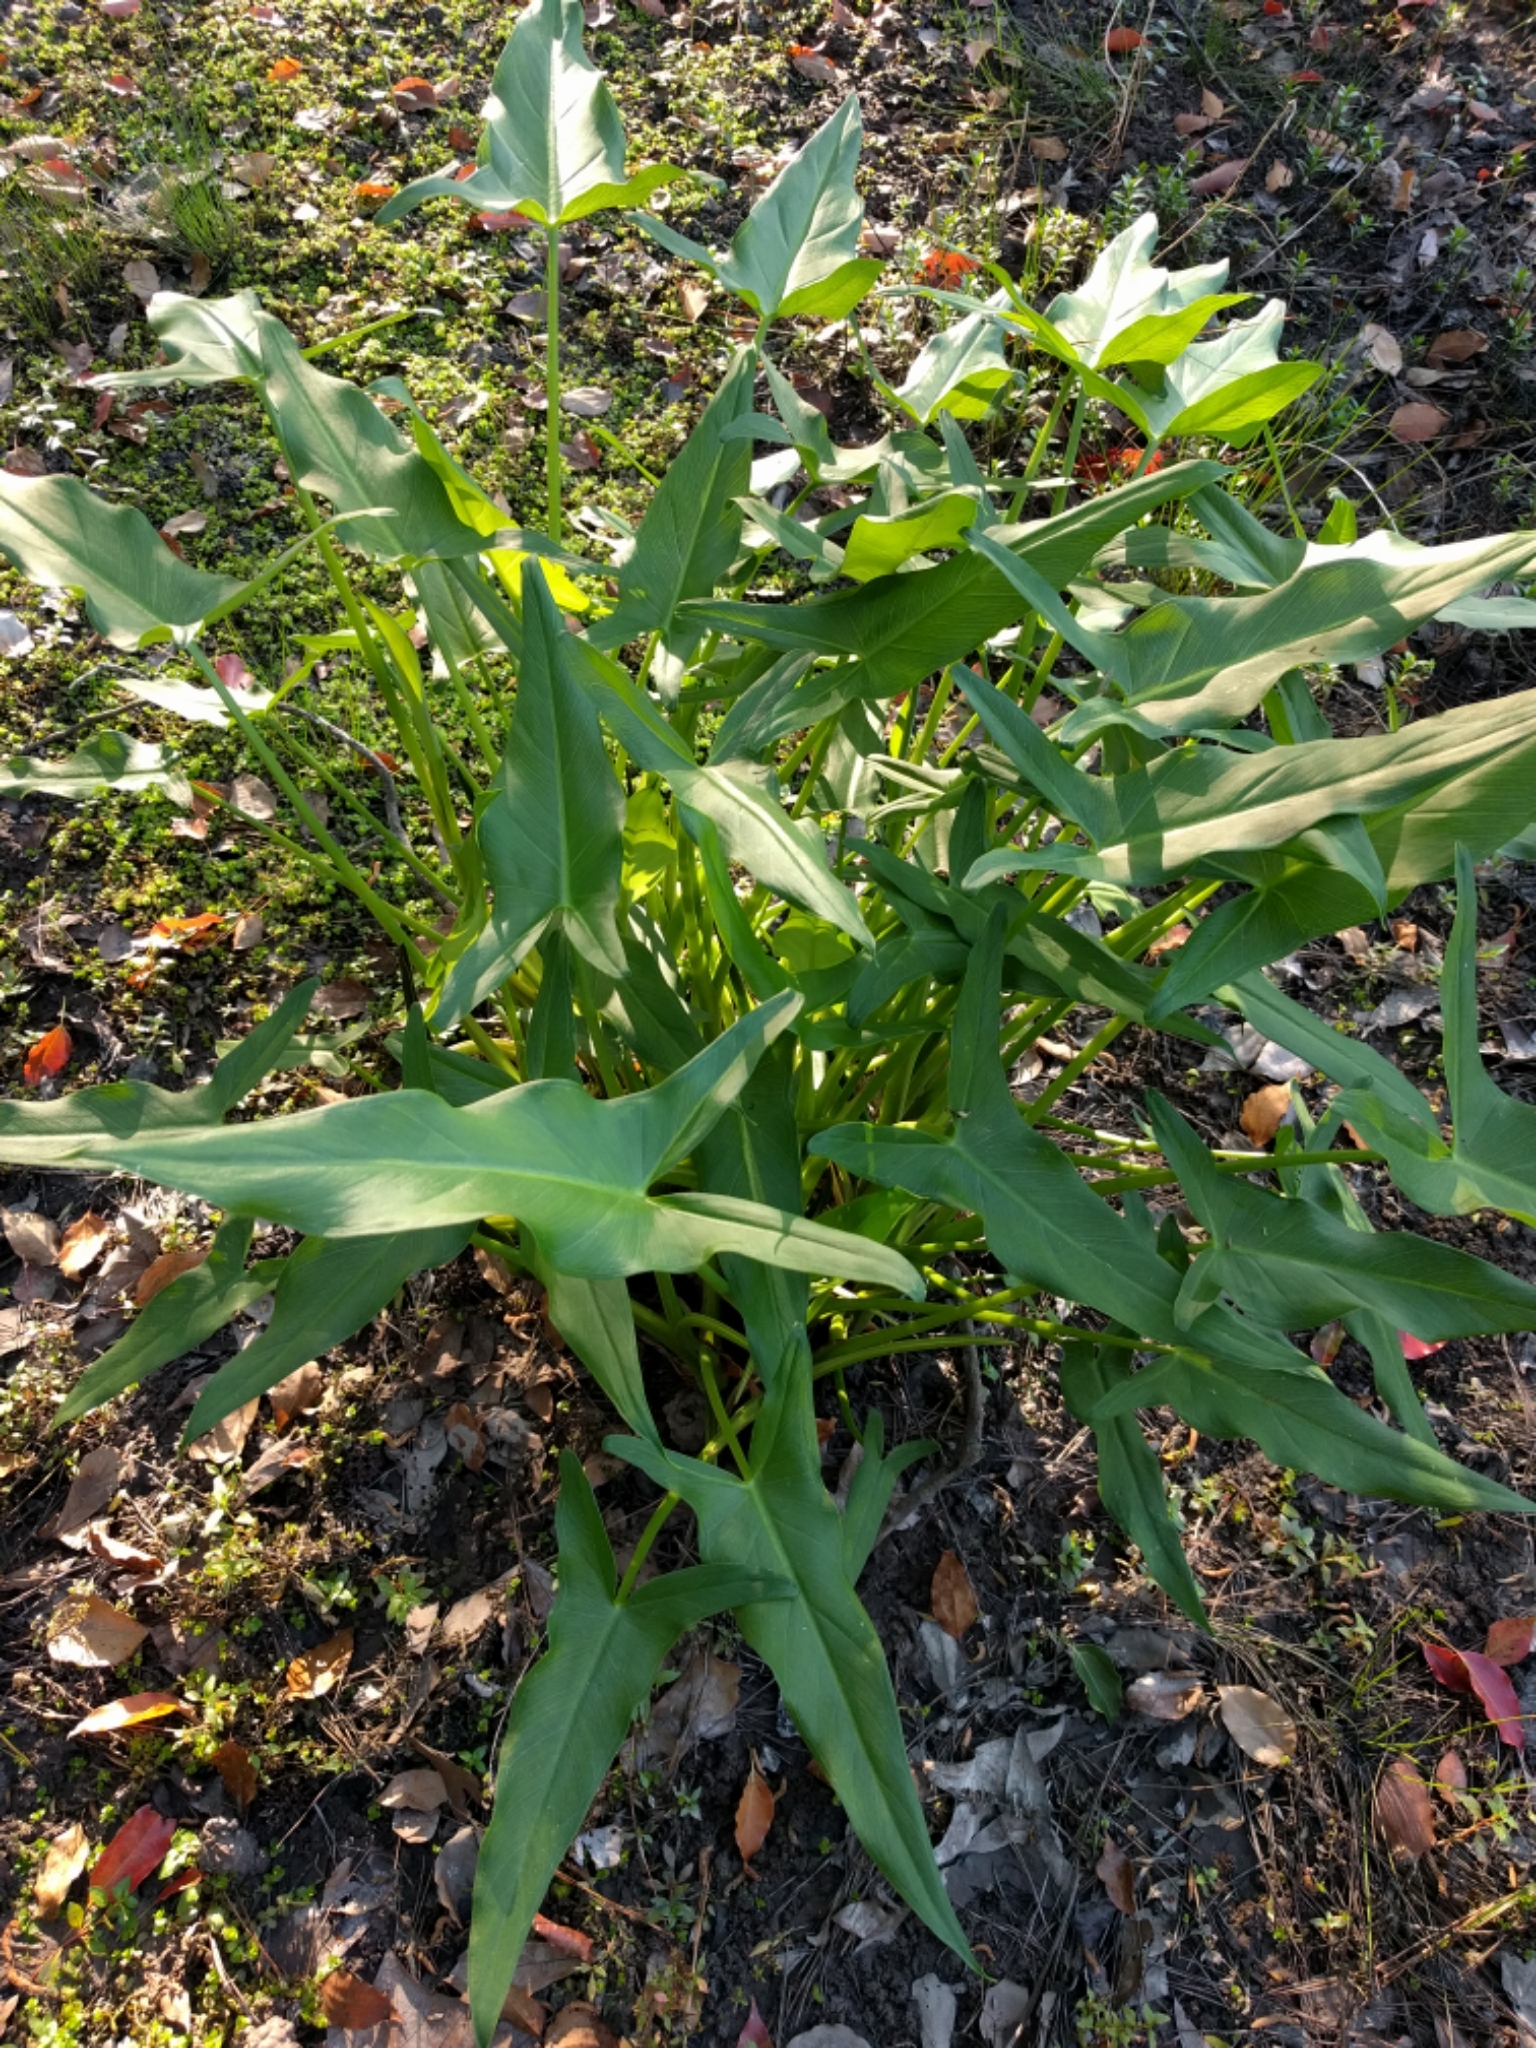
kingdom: Plantae
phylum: Tracheophyta
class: Liliopsida
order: Alismatales
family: Araceae
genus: Peltandra
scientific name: Peltandra virginica
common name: Arrow arum
